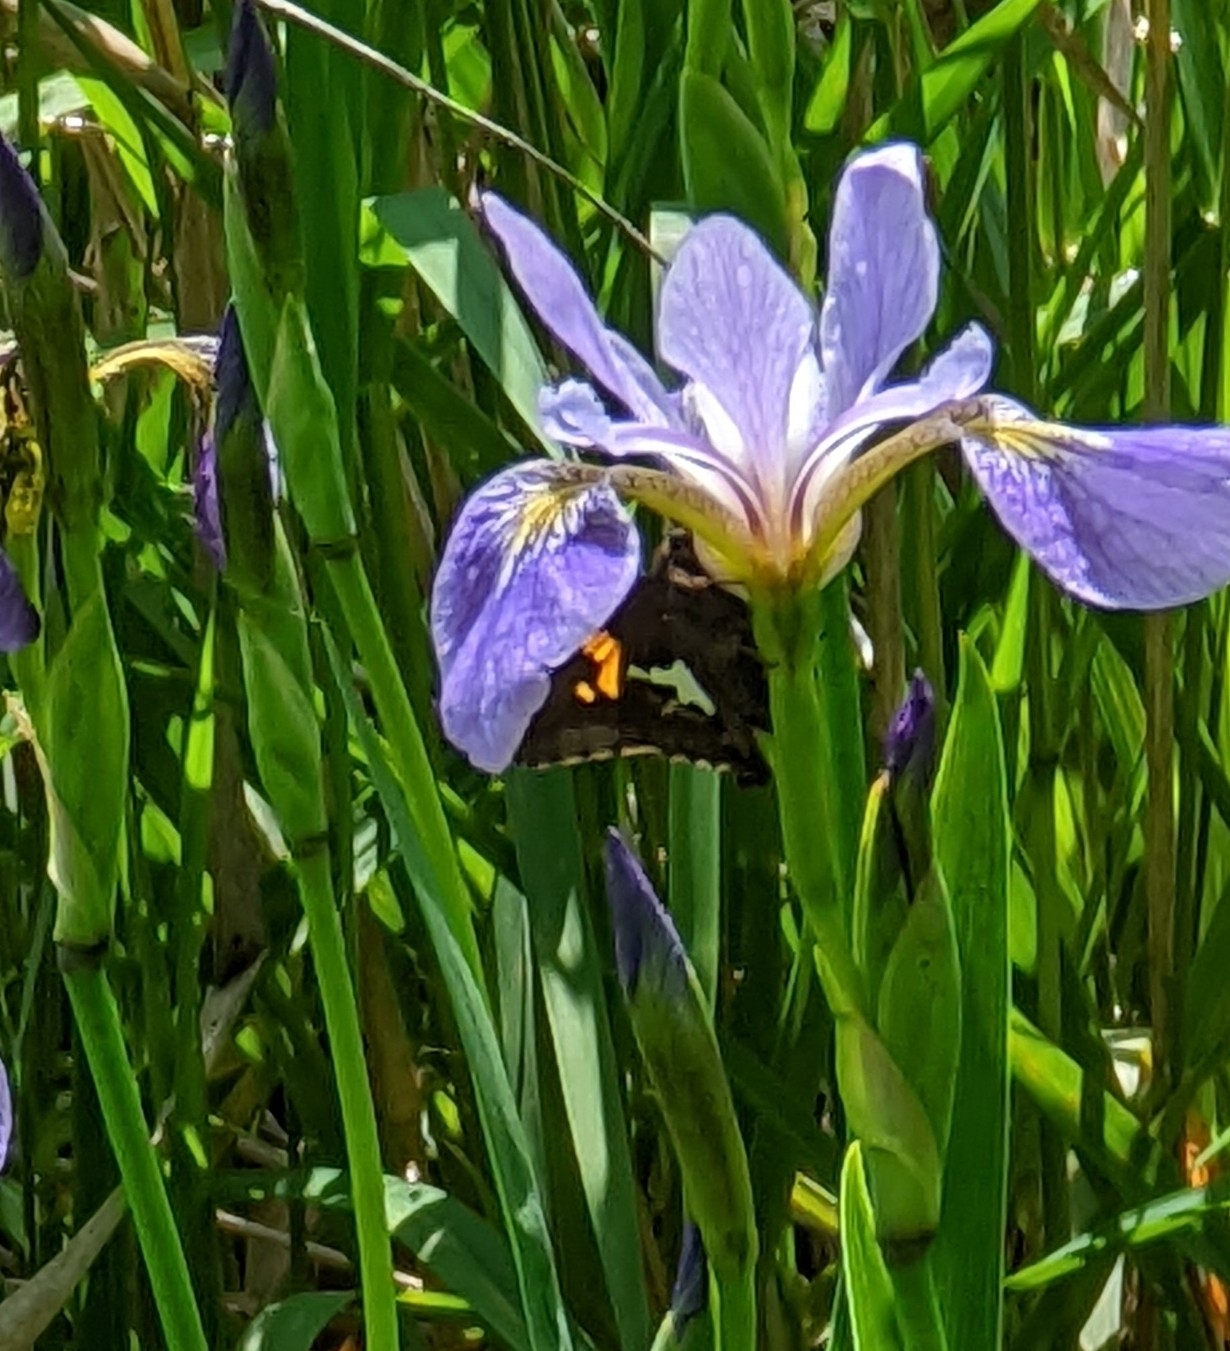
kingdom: Animalia
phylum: Arthropoda
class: Insecta
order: Lepidoptera
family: Hesperiidae
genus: Epargyreus
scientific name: Epargyreus clarus
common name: Silver-spotted skipper
